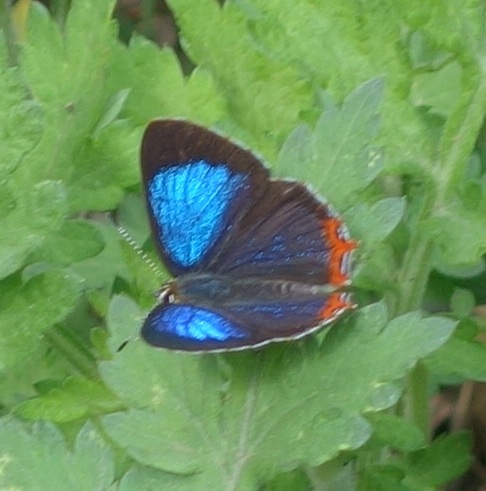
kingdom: Animalia
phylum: Arthropoda
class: Insecta
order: Lepidoptera
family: Lycaenidae
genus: Heliophorus
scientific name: Heliophorus
